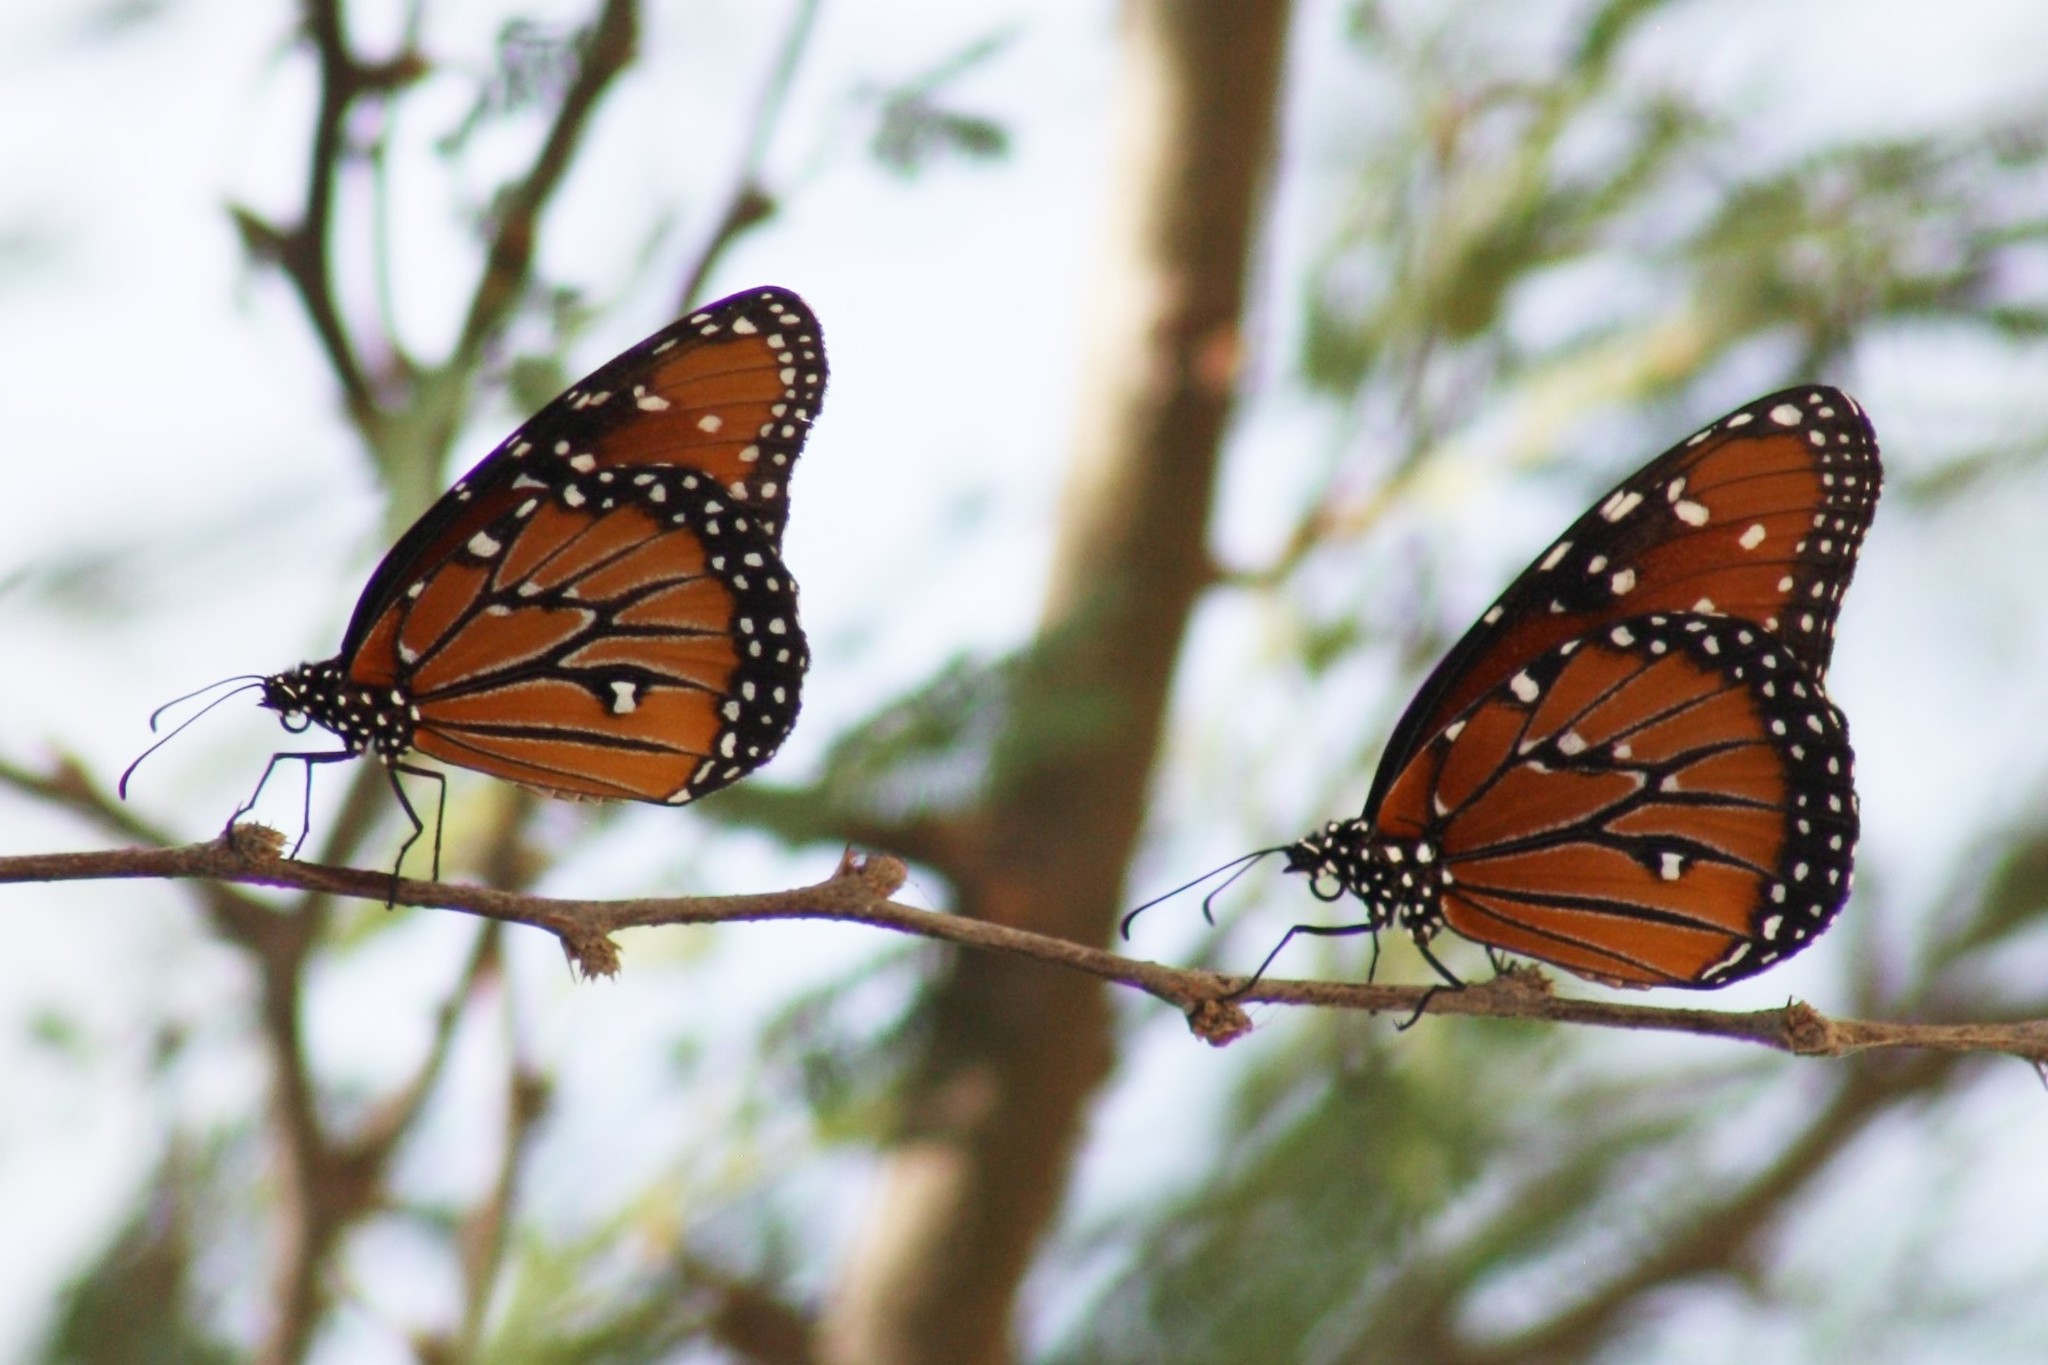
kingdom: Animalia
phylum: Arthropoda
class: Insecta
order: Lepidoptera
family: Nymphalidae
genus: Danaus
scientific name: Danaus gilippus
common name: Queen
